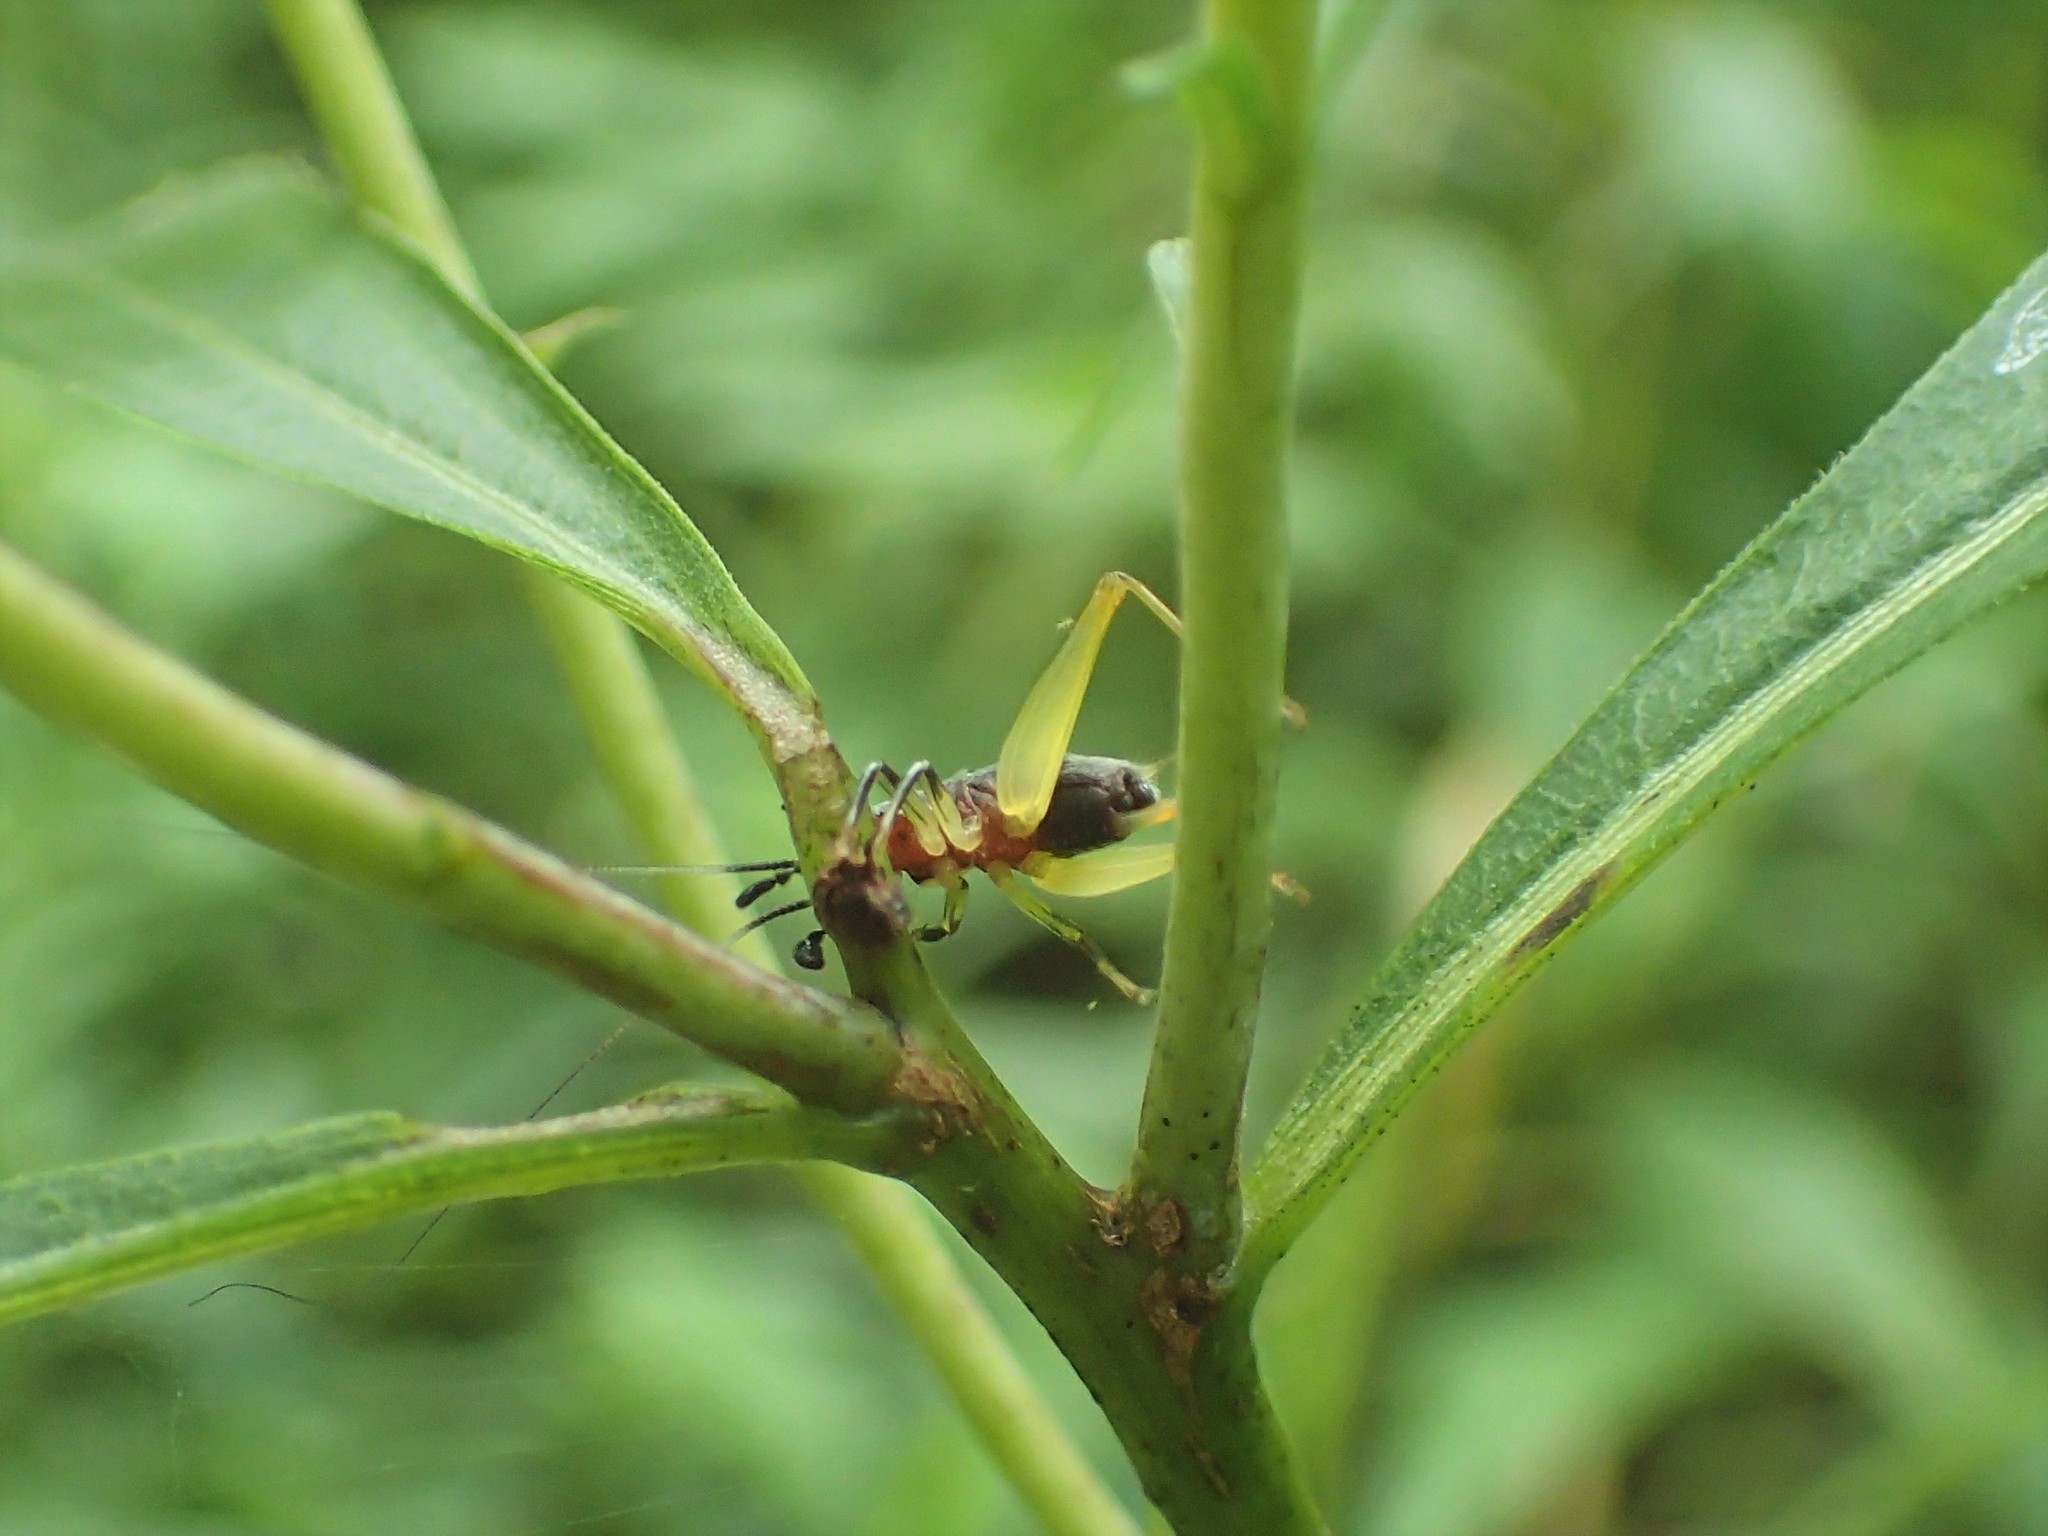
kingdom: Animalia
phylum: Arthropoda
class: Insecta
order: Orthoptera
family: Trigonidiidae
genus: Phyllopalpus
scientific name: Phyllopalpus pulchellus
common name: Handsome trig
